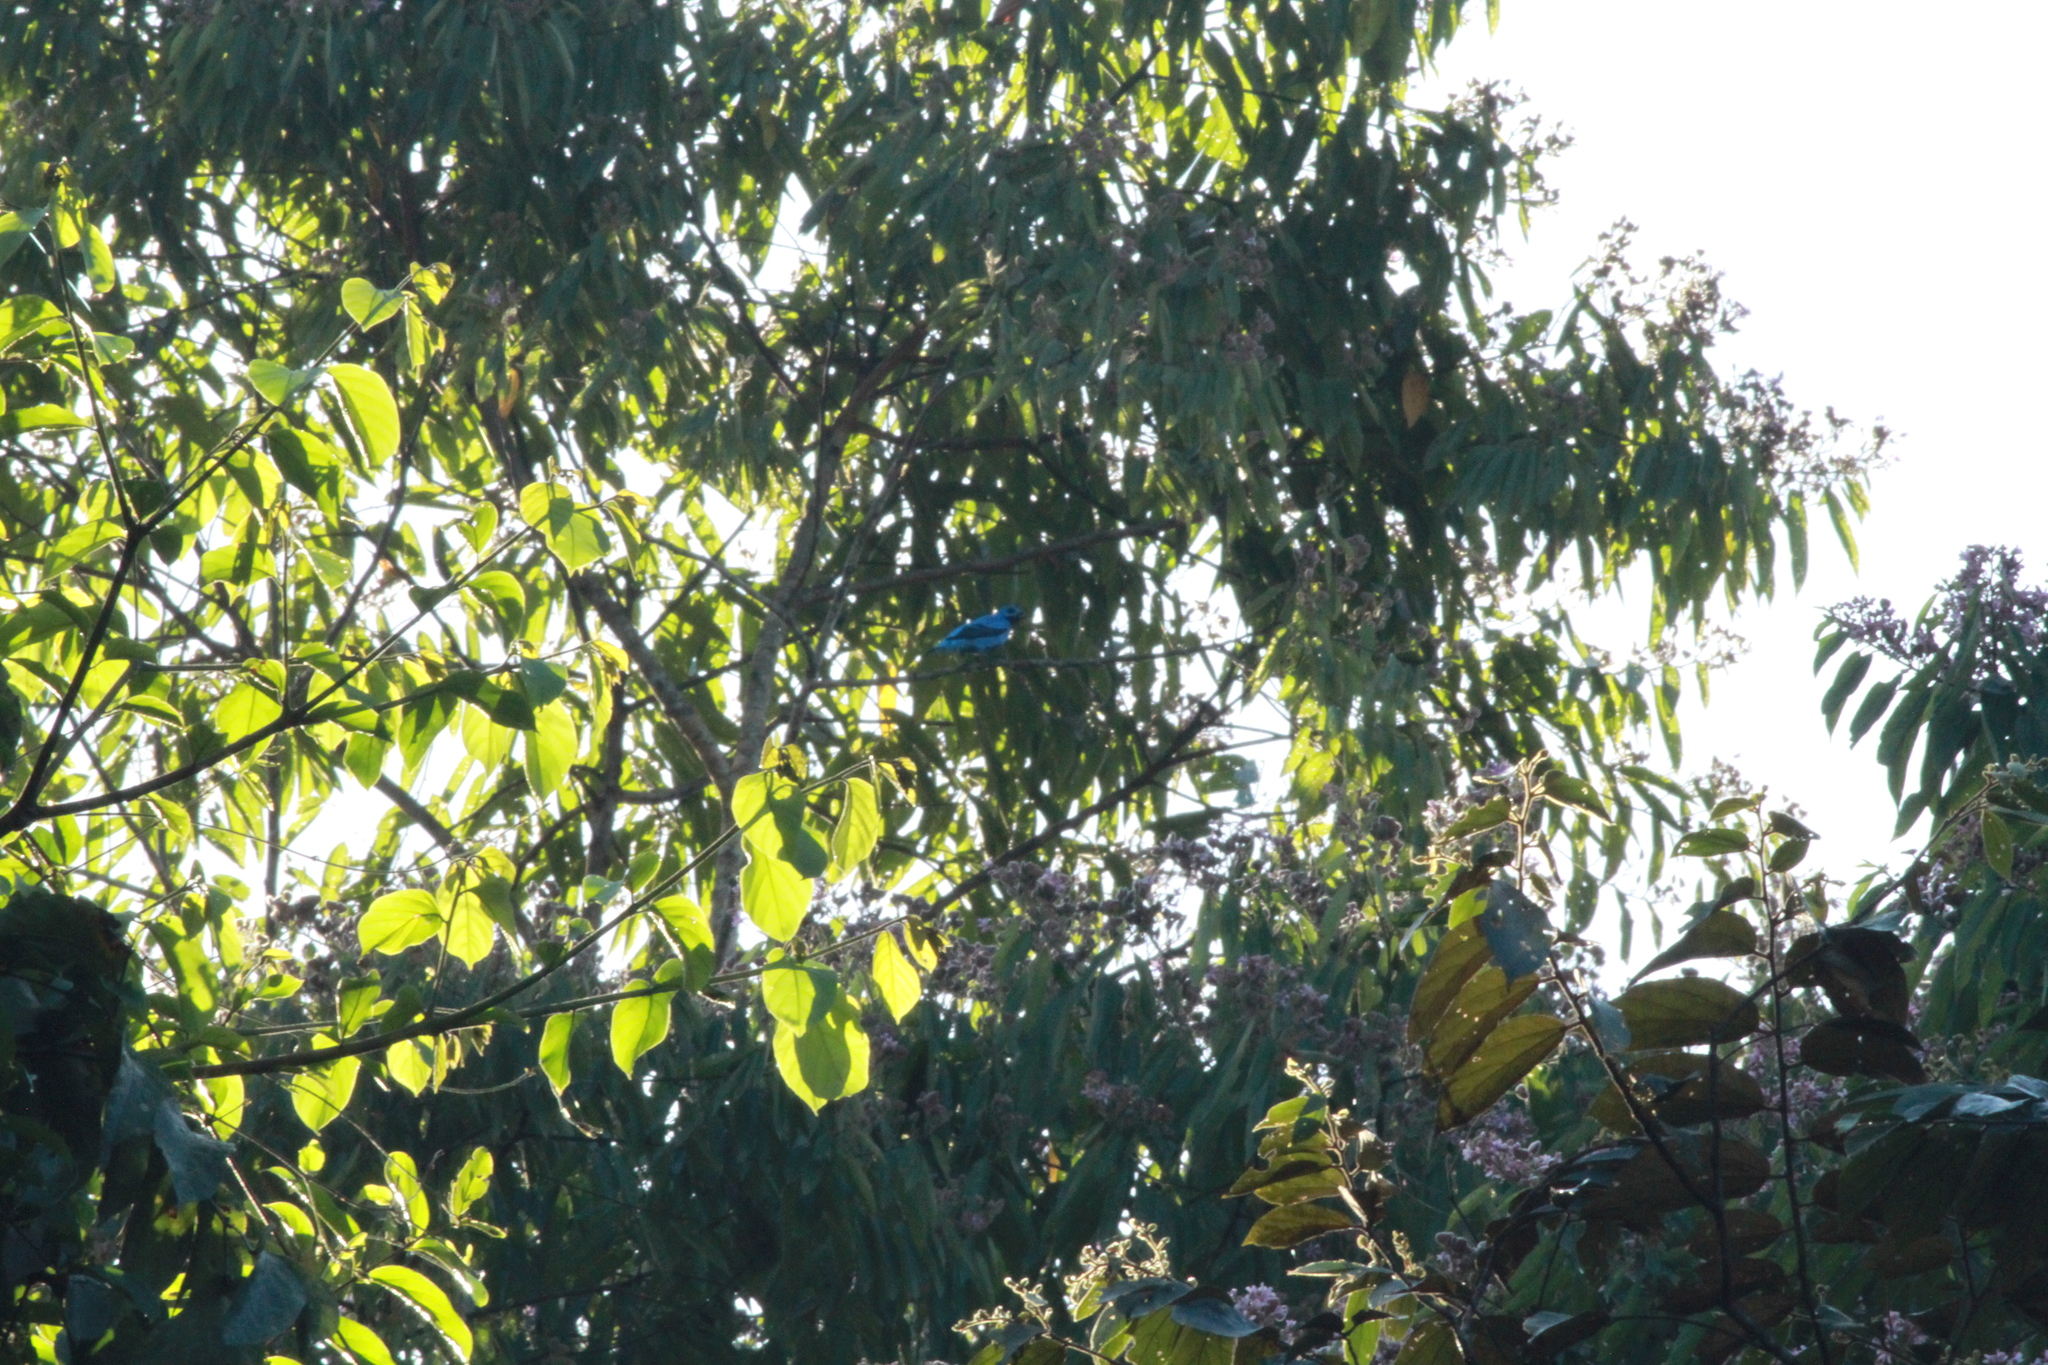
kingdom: Animalia
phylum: Chordata
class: Aves
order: Passeriformes
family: Cotingidae
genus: Cotinga
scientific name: Cotinga nattererii
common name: Blue cotinga
